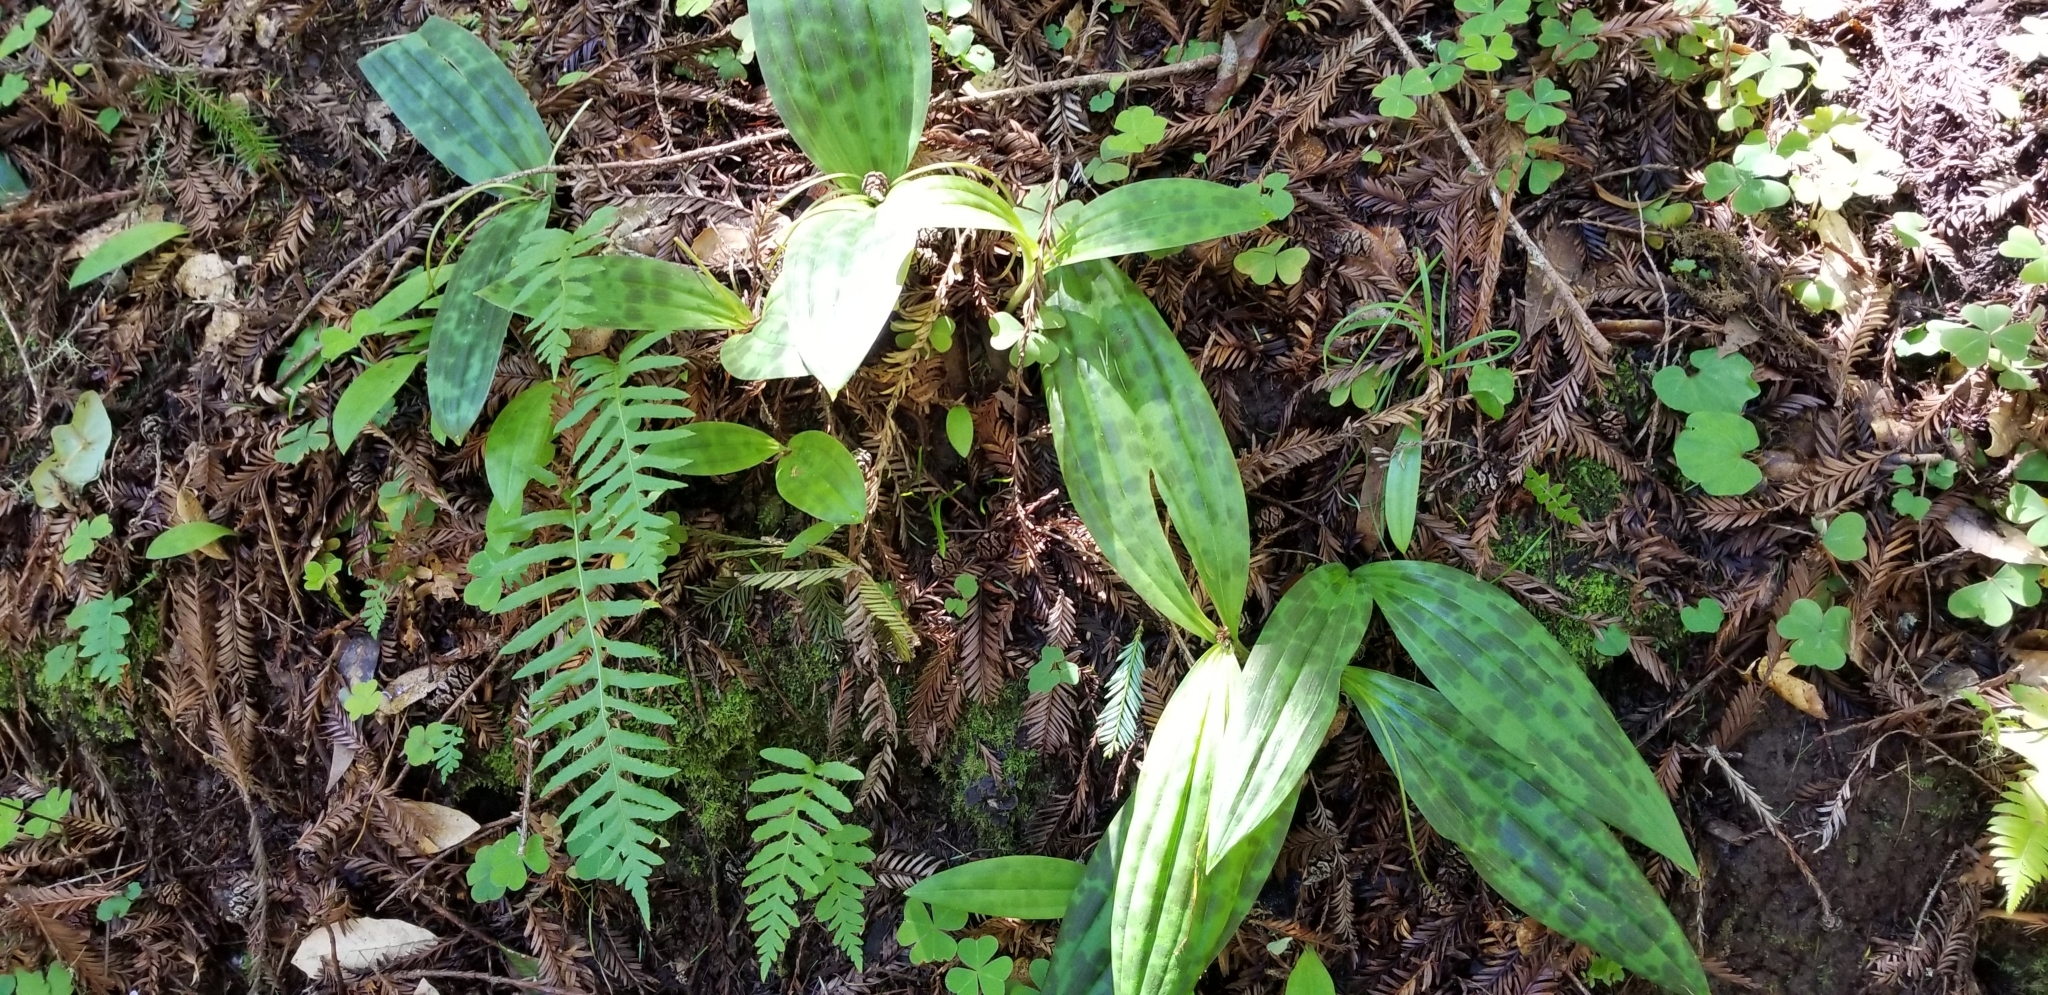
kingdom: Plantae
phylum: Tracheophyta
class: Liliopsida
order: Liliales
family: Liliaceae
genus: Scoliopus
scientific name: Scoliopus bigelovii
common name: Foetid adder's-tongue
